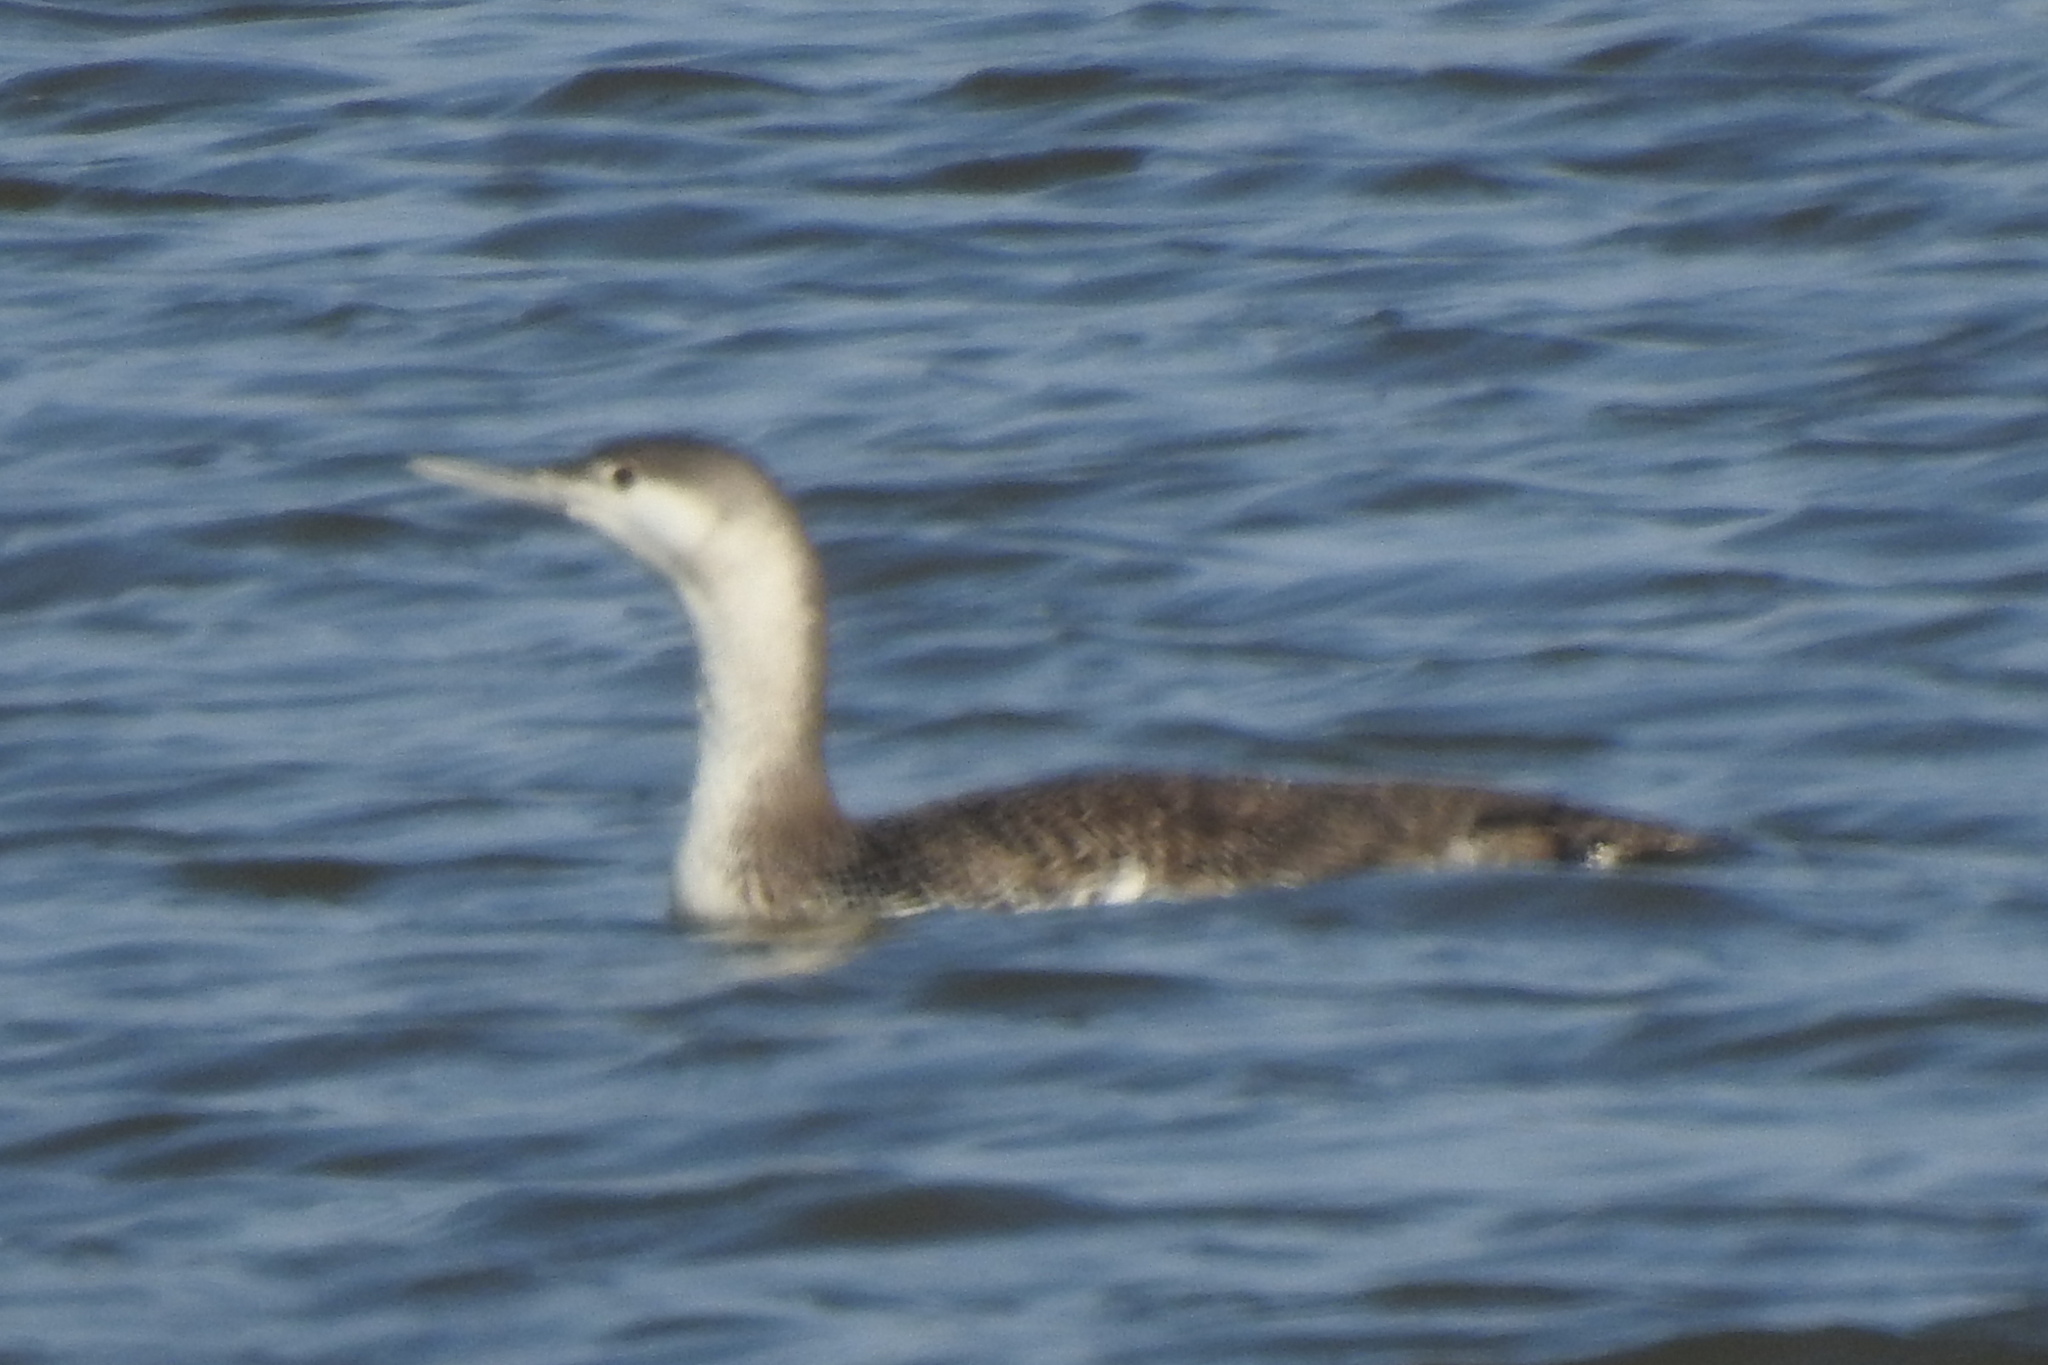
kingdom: Animalia
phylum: Chordata
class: Aves
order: Gaviiformes
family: Gaviidae
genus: Gavia
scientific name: Gavia stellata
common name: Red-throated loon
